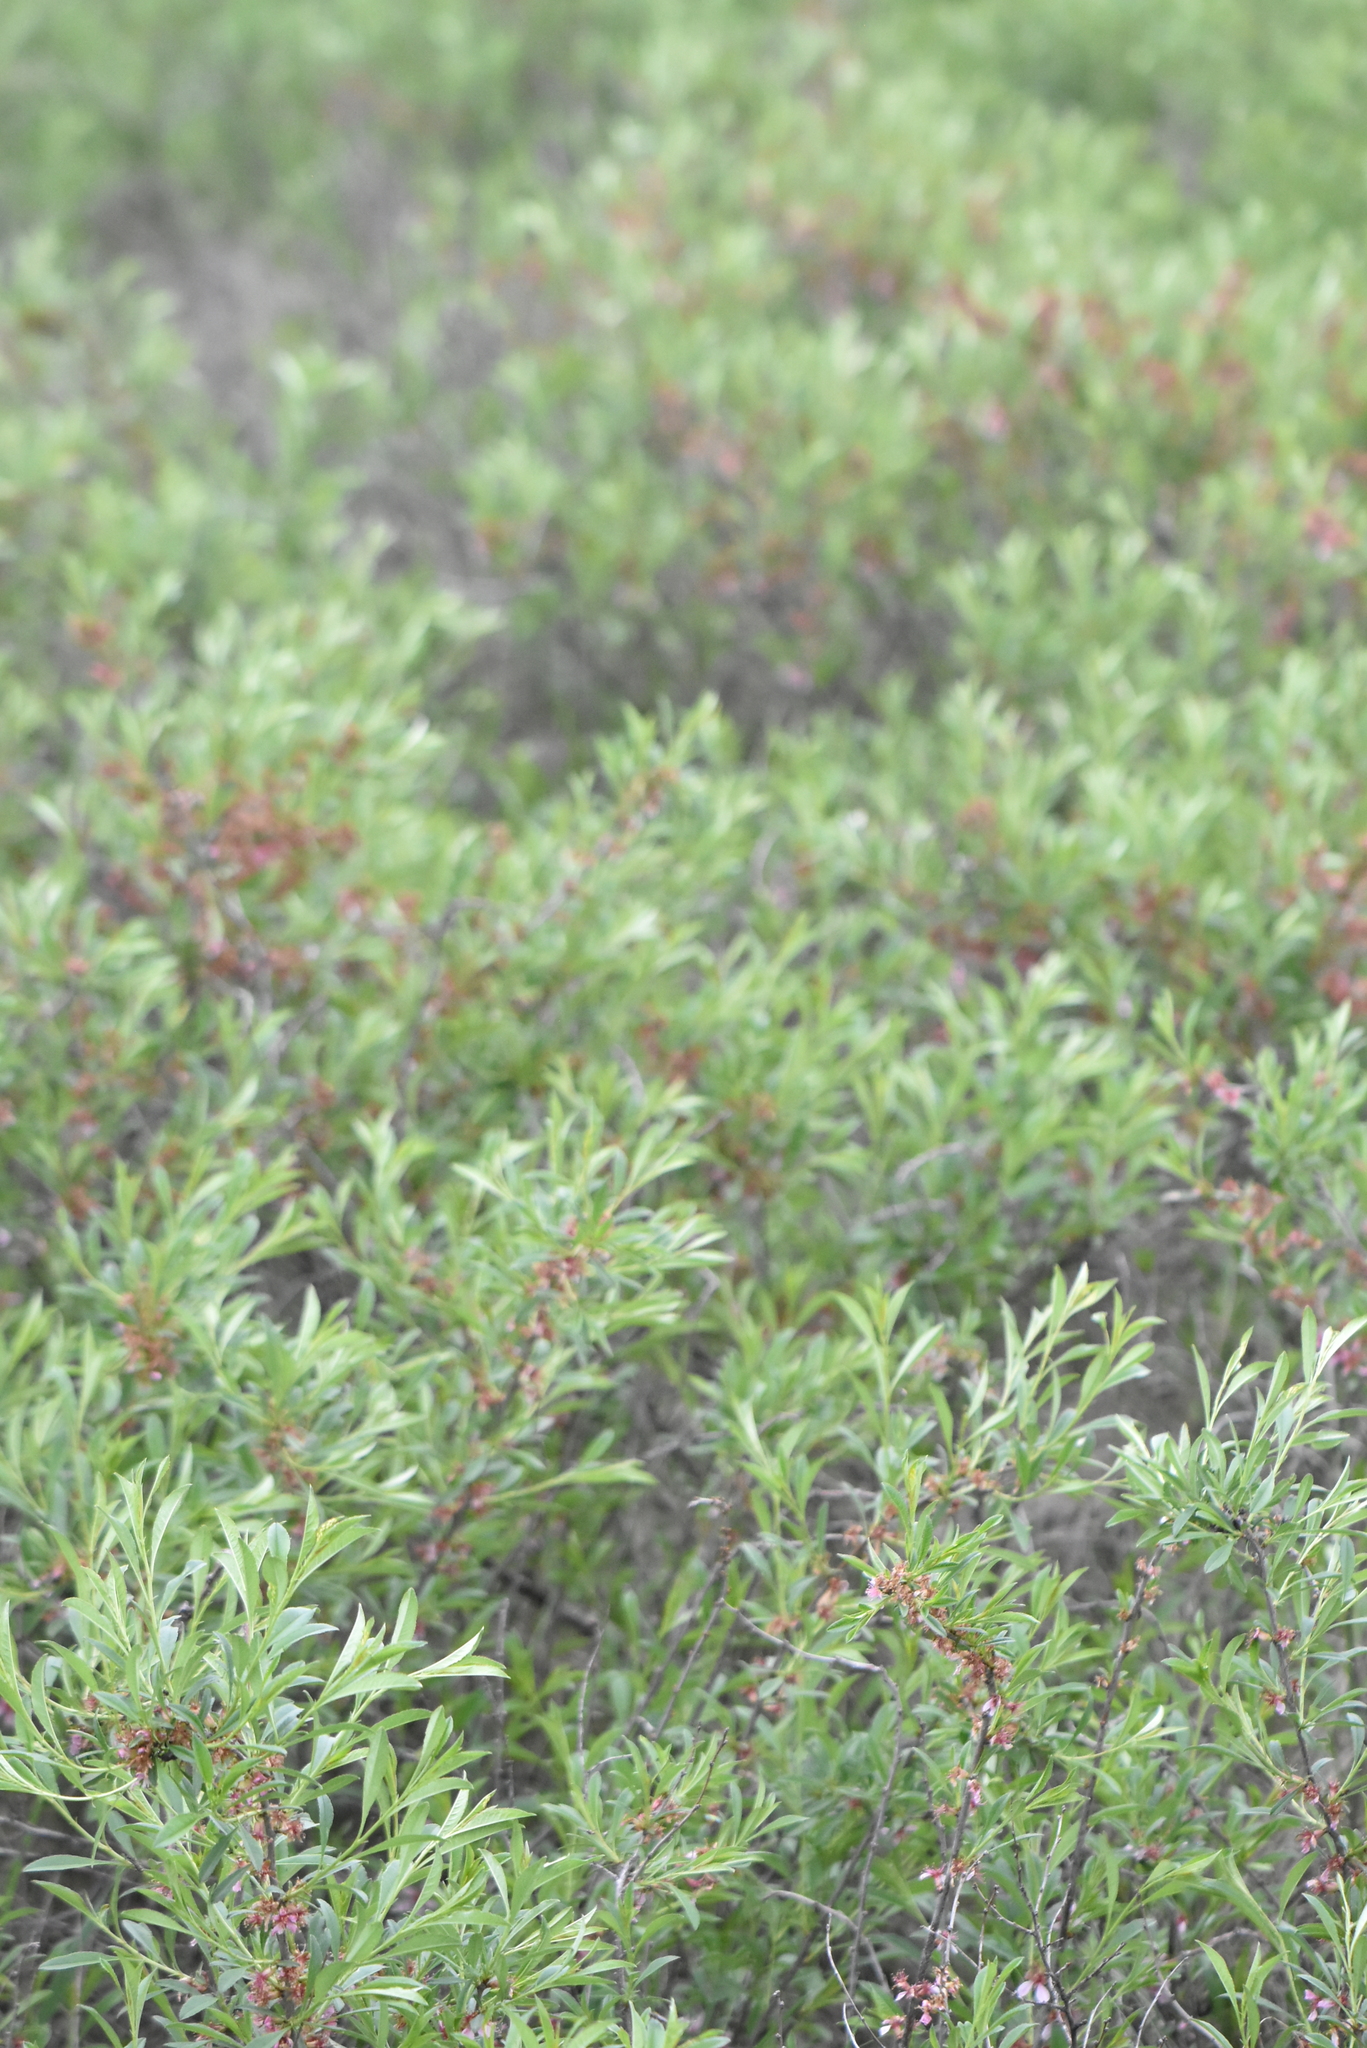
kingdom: Plantae
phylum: Tracheophyta
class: Magnoliopsida
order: Rosales
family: Rosaceae
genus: Prunus
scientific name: Prunus tenella
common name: Dwarf russian almond
